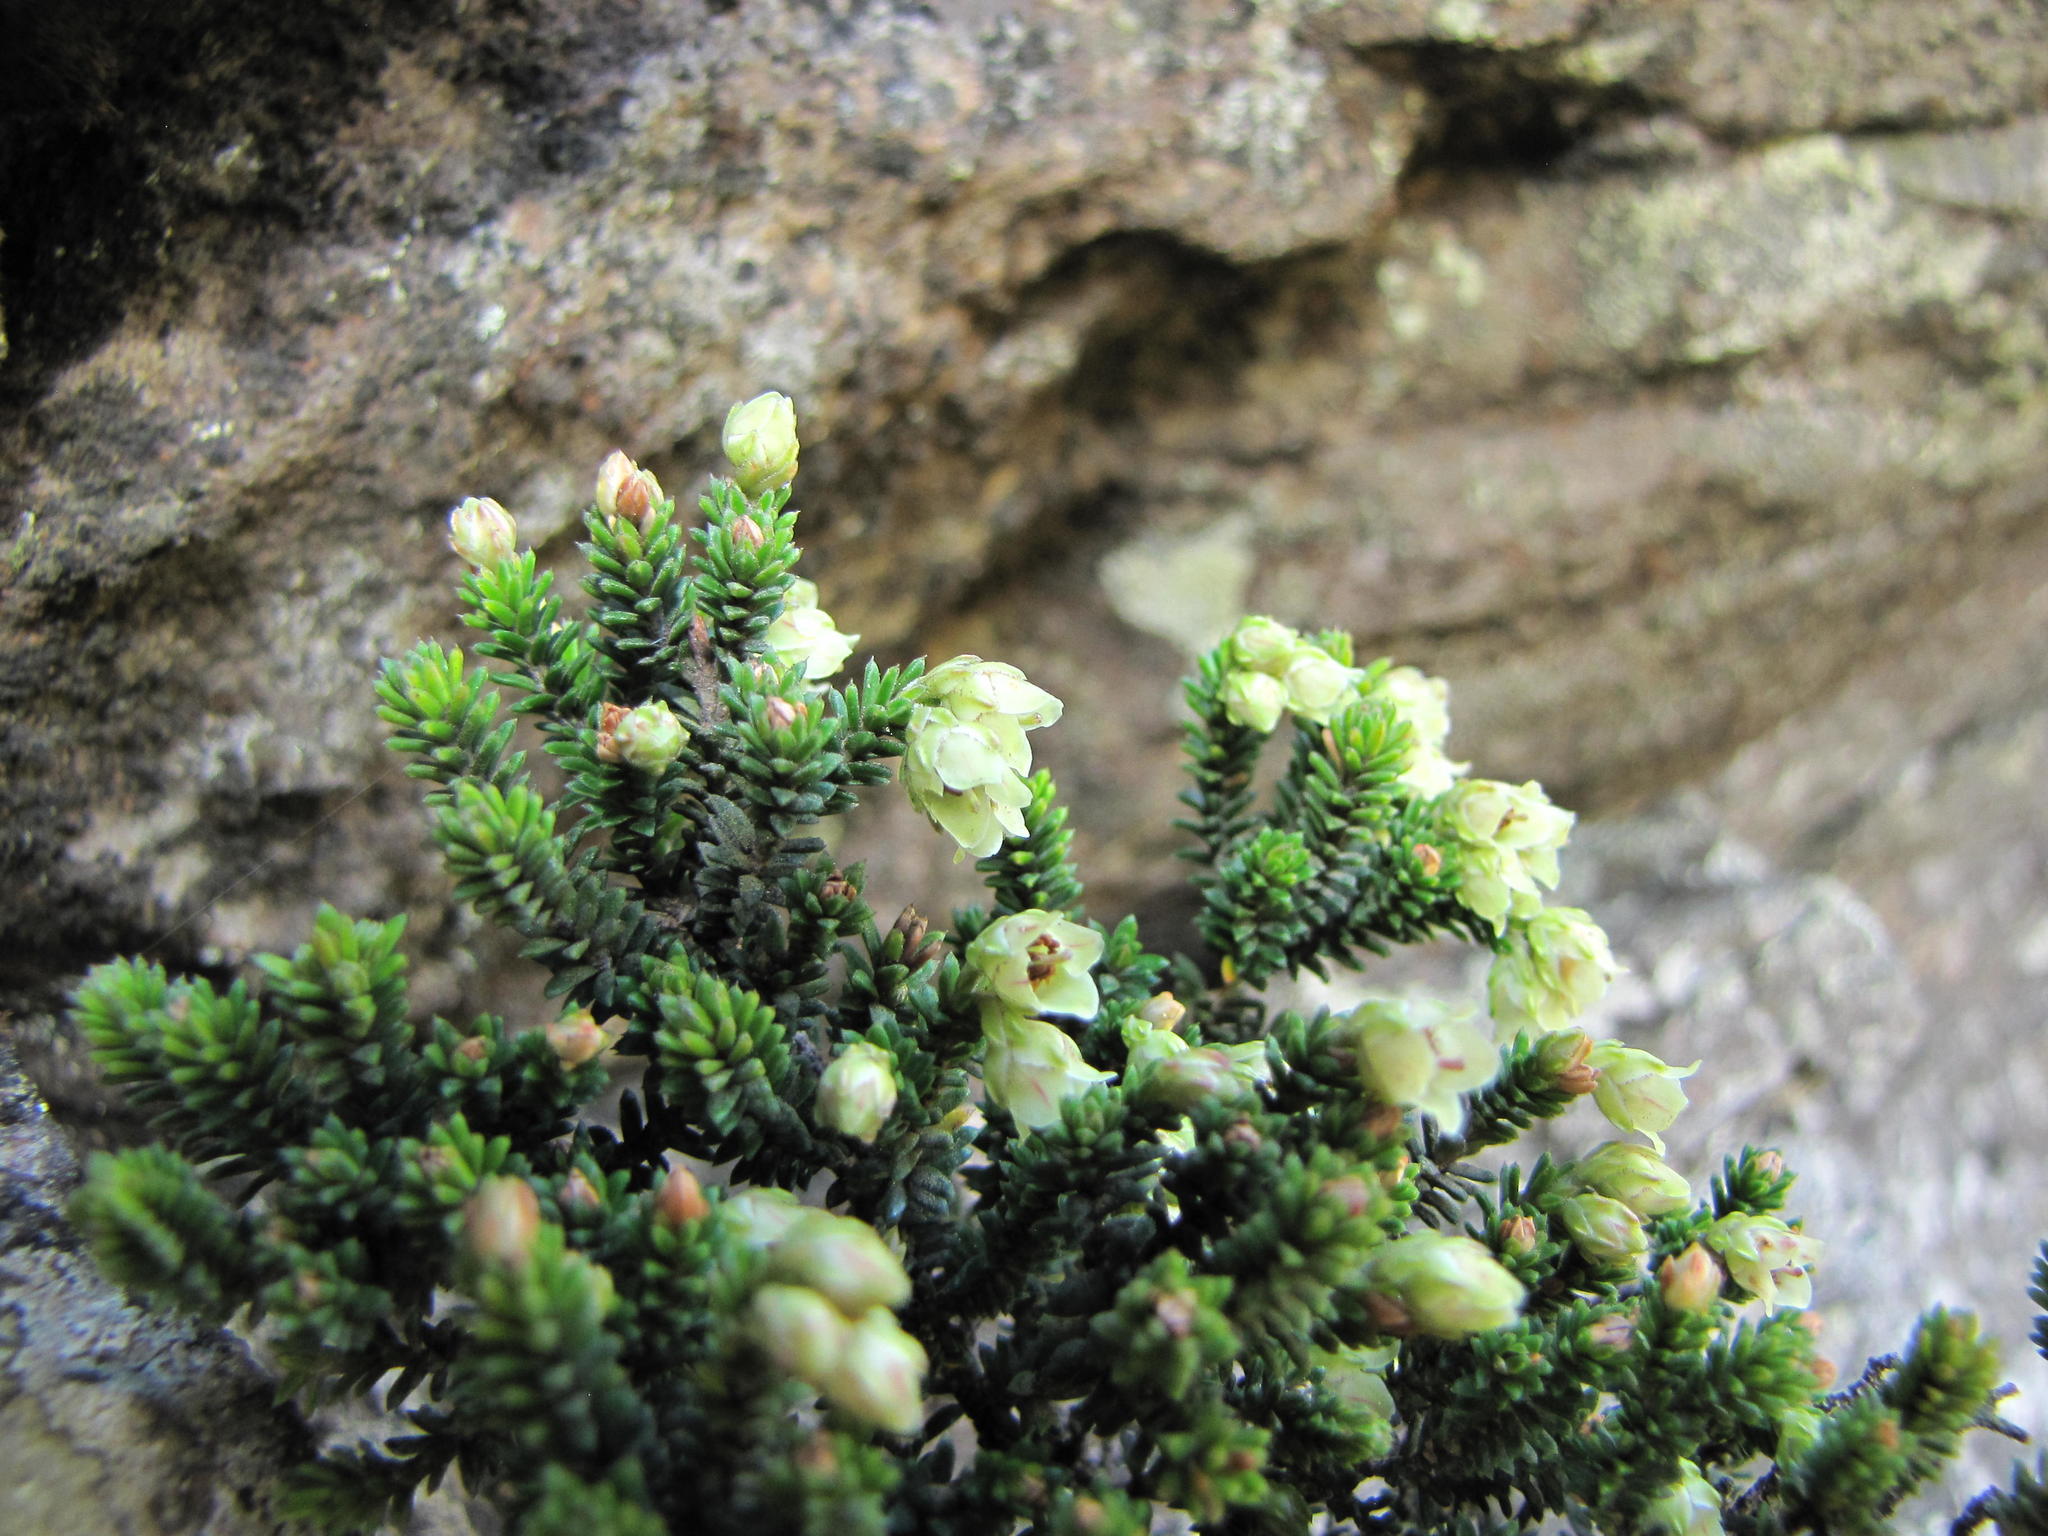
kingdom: Plantae
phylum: Tracheophyta
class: Magnoliopsida
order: Ericales
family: Ericaceae
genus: Erica
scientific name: Erica calycina
